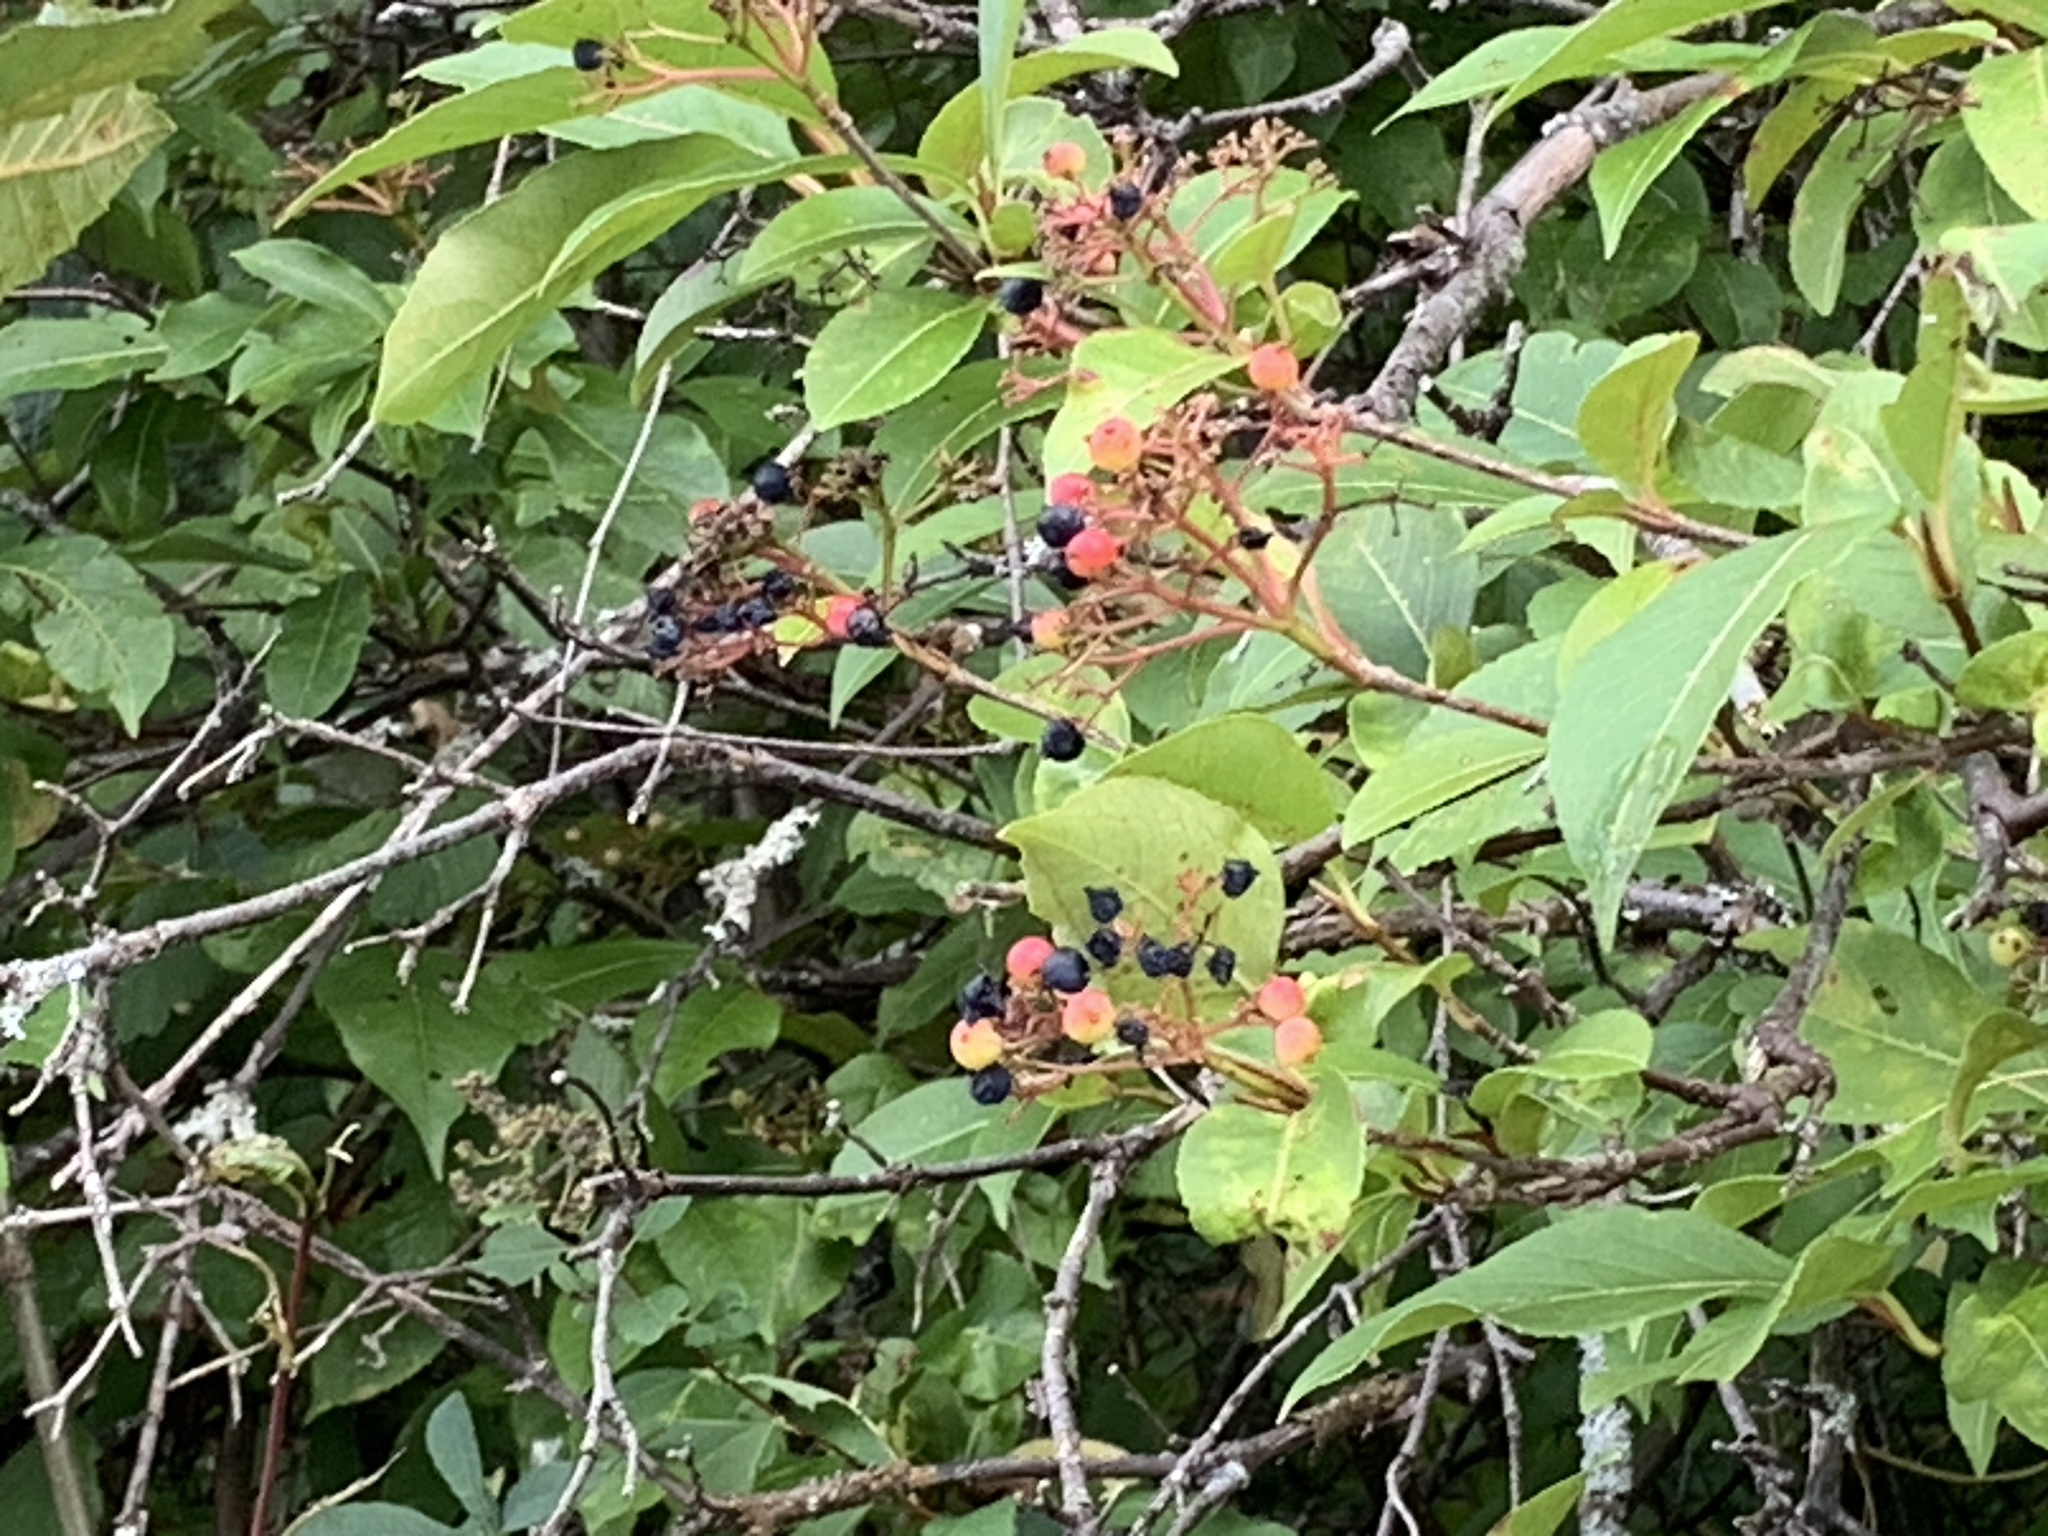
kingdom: Plantae
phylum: Tracheophyta
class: Magnoliopsida
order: Dipsacales
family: Viburnaceae
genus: Viburnum
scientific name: Viburnum cassinoides
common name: Swamp haw
